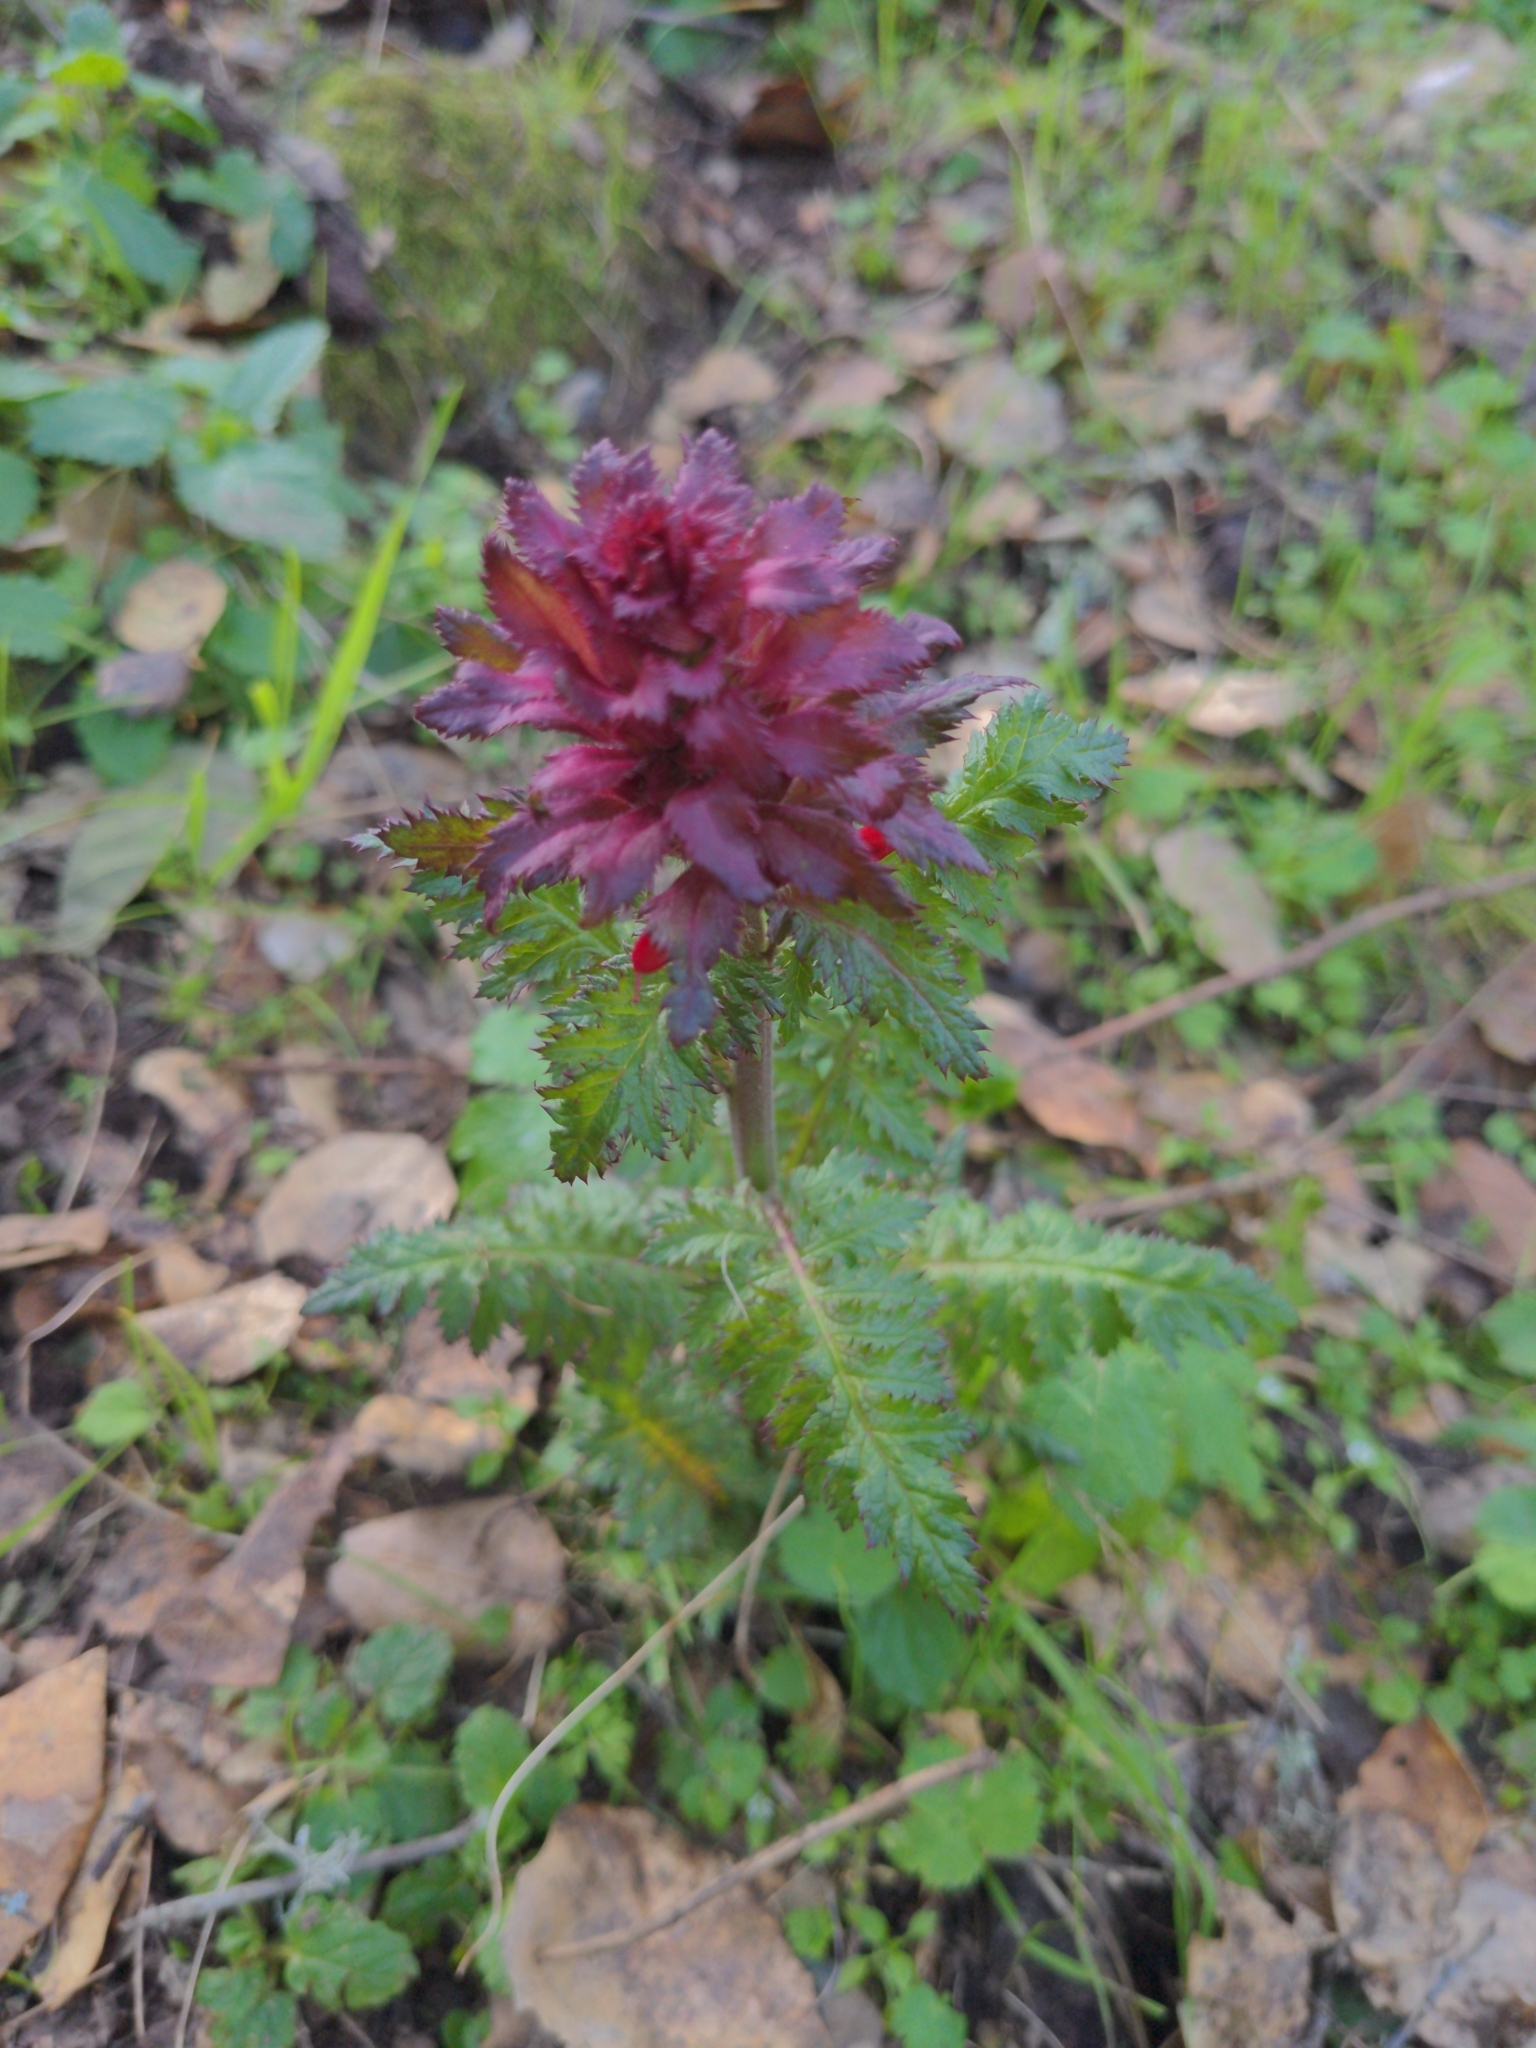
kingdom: Plantae
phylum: Tracheophyta
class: Magnoliopsida
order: Lamiales
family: Orobanchaceae
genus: Pedicularis
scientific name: Pedicularis densiflora
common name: Indian warrior
